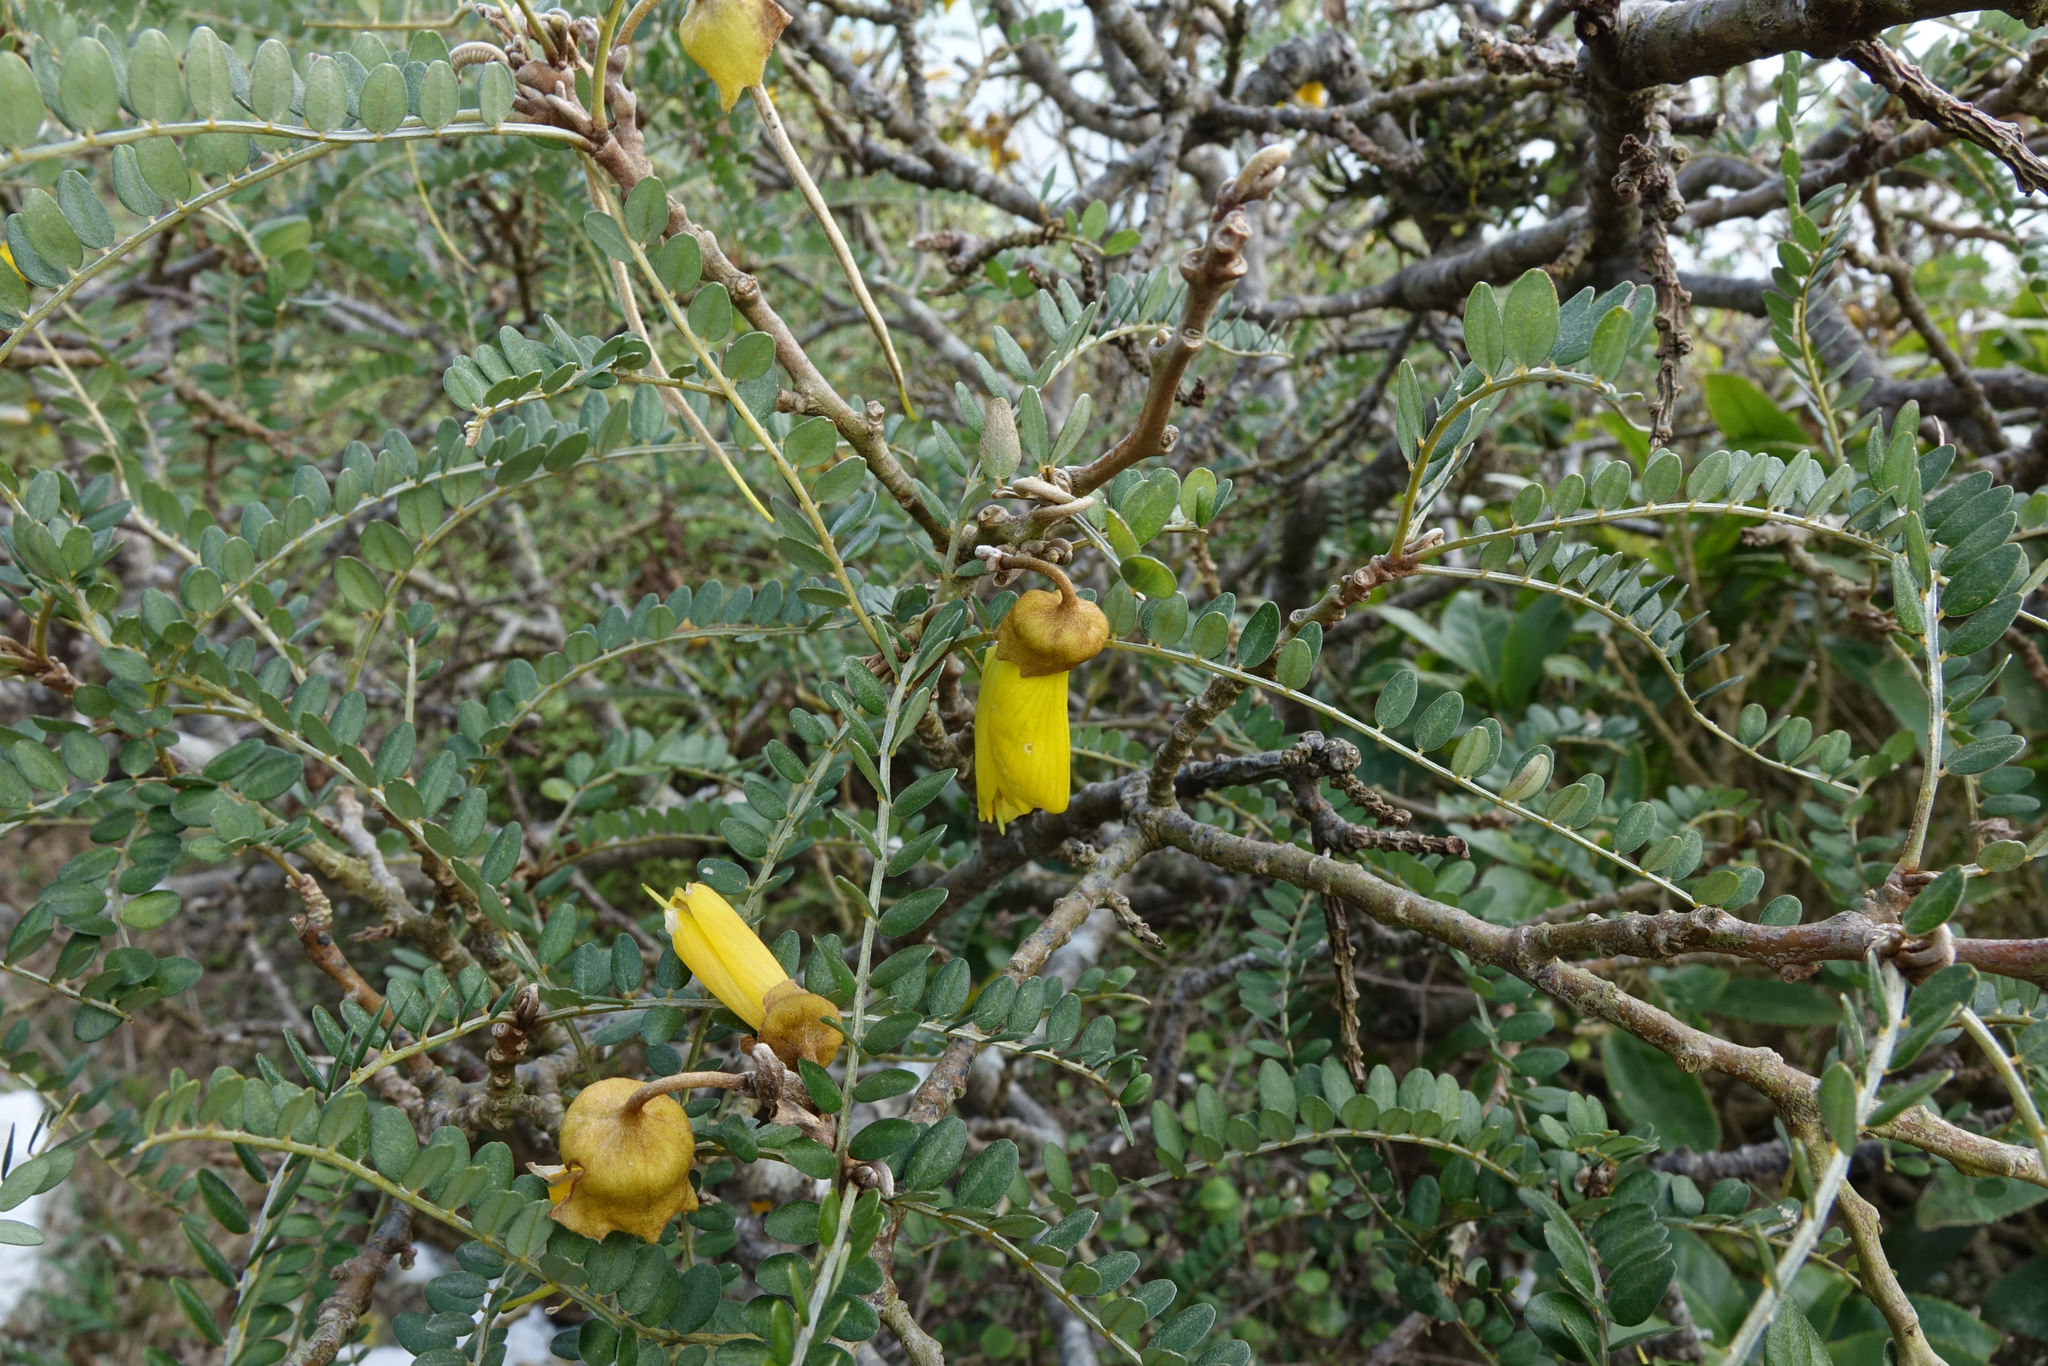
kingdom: Plantae
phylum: Tracheophyta
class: Magnoliopsida
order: Fabales
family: Fabaceae
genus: Sophora
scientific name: Sophora microphylla
